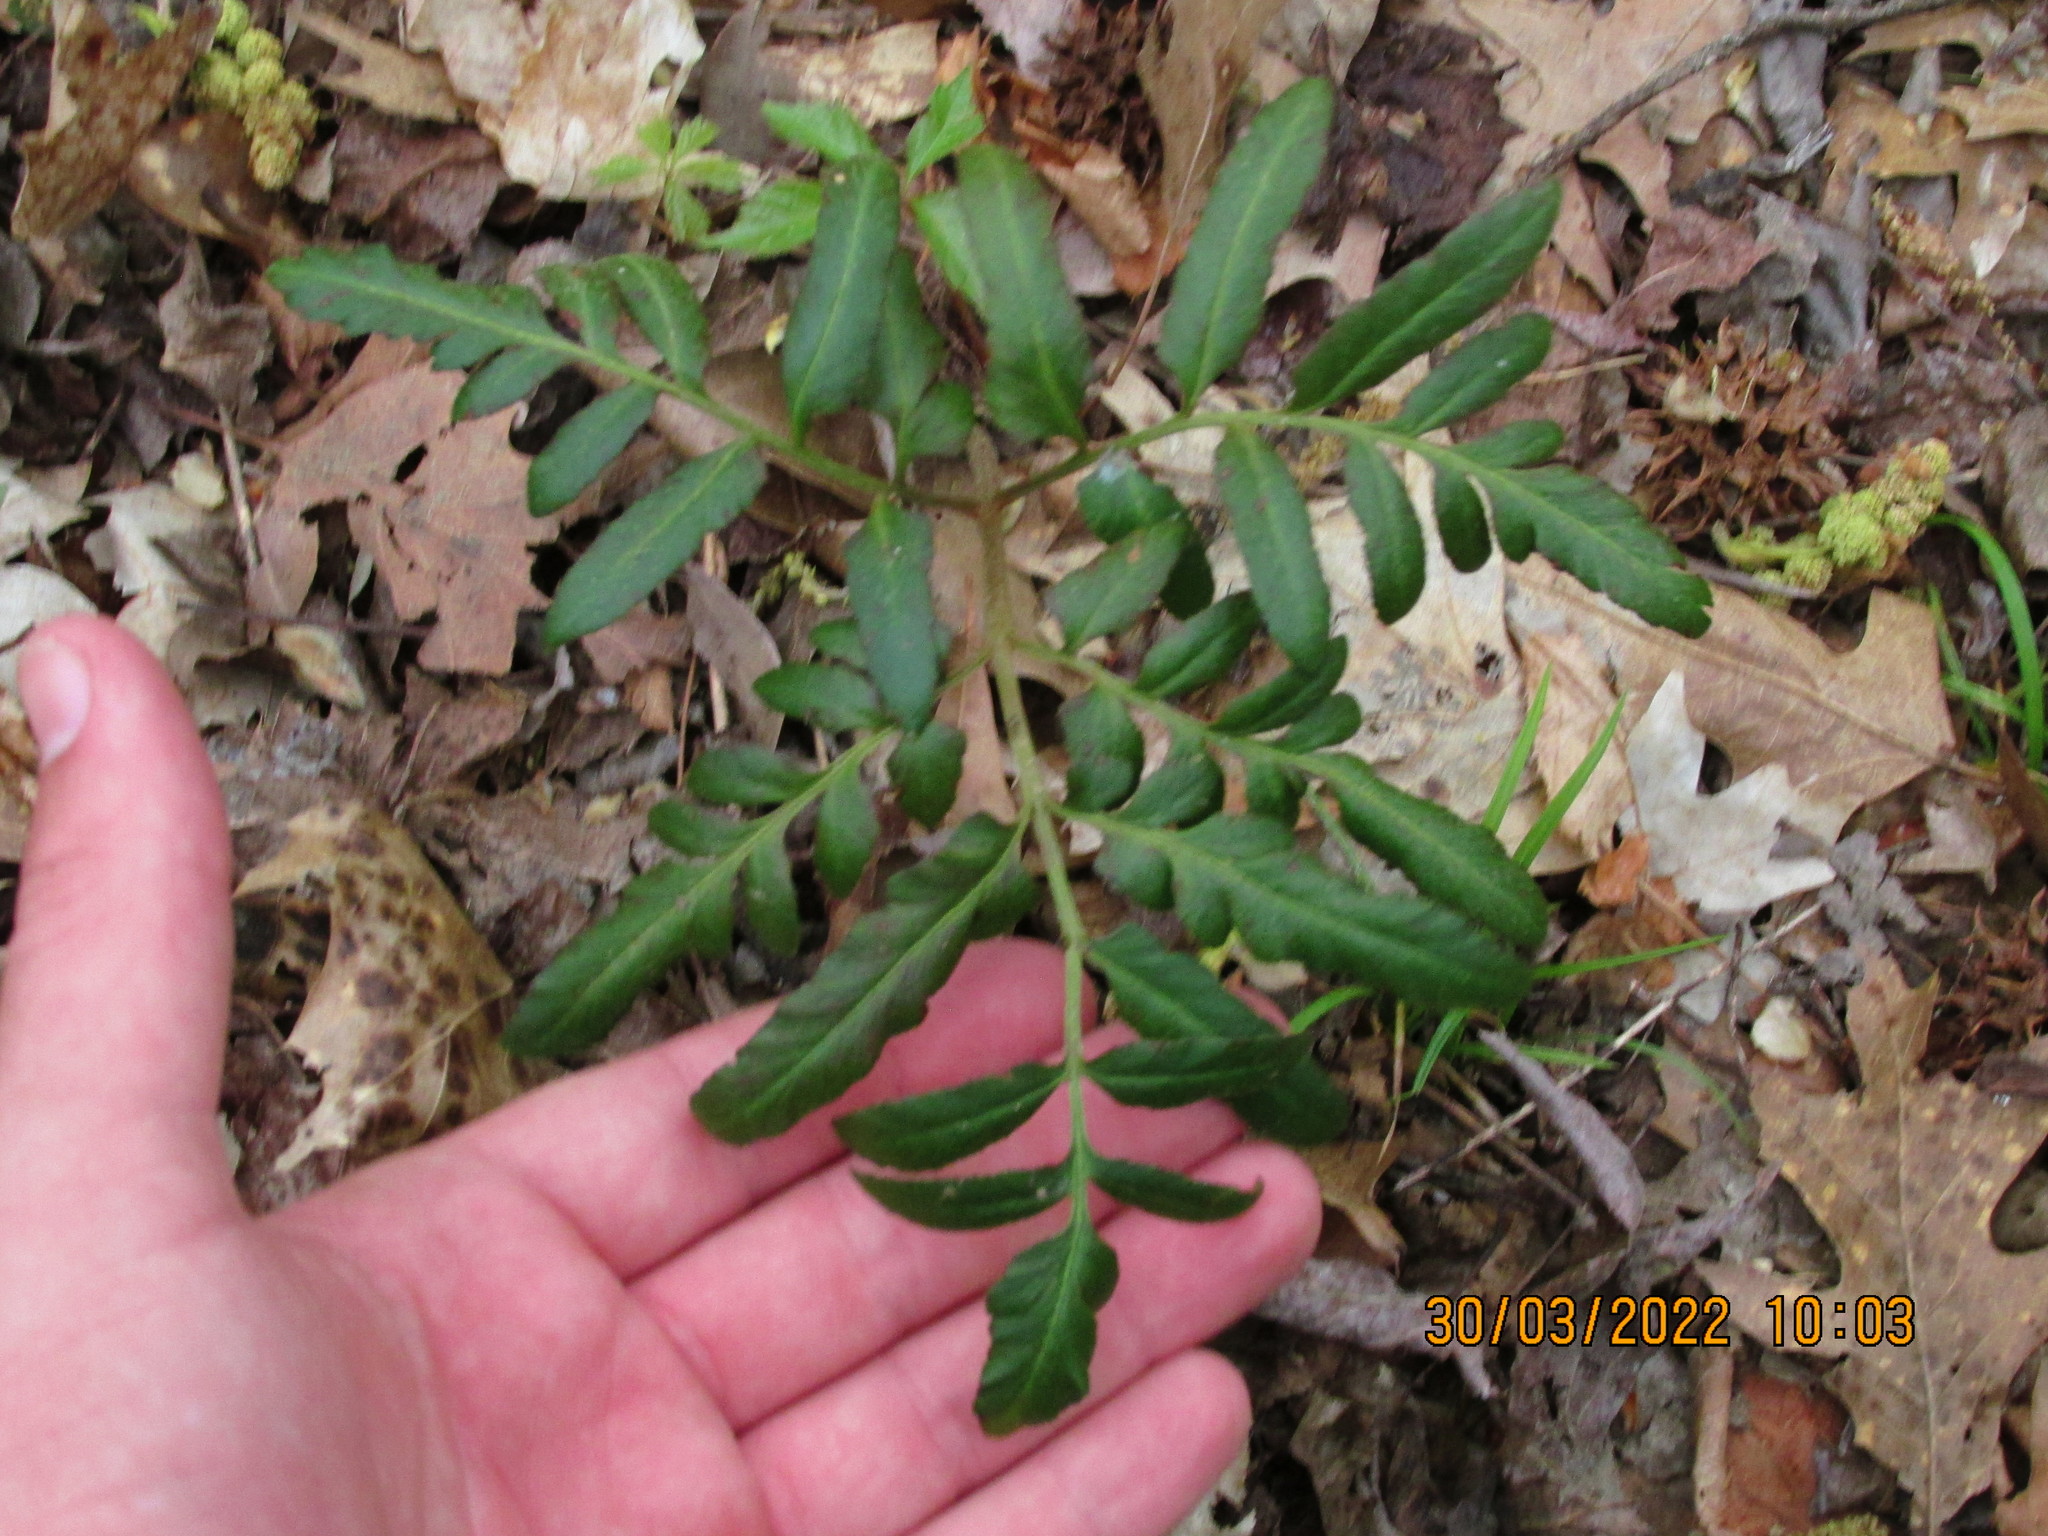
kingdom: Plantae
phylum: Tracheophyta
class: Polypodiopsida
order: Ophioglossales
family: Ophioglossaceae
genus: Sceptridium
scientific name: Sceptridium biternatum
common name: Sparse-lobed grapefern
